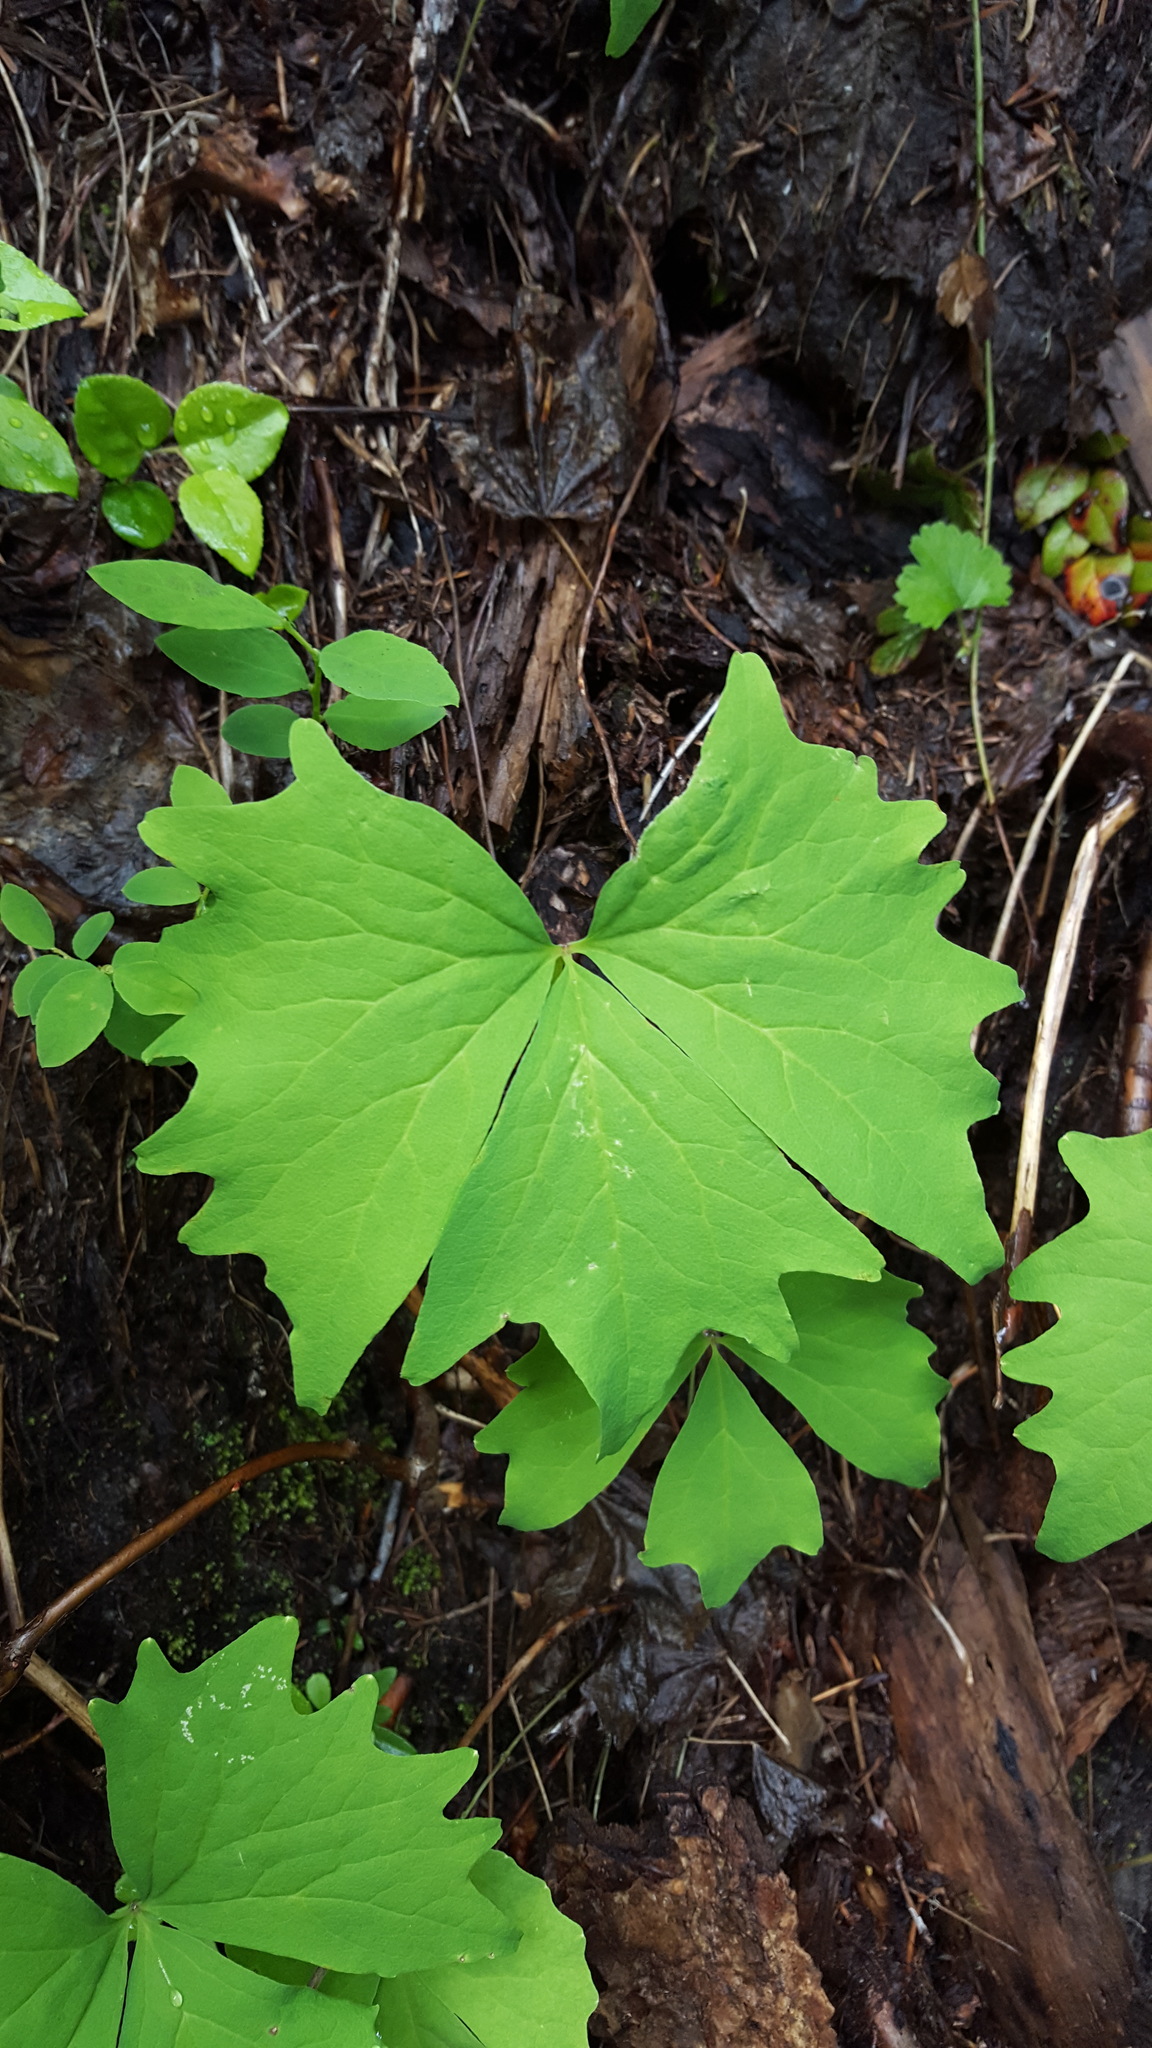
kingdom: Plantae
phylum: Tracheophyta
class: Magnoliopsida
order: Ranunculales
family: Berberidaceae
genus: Achlys
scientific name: Achlys triphylla
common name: Vanilla-leaf
